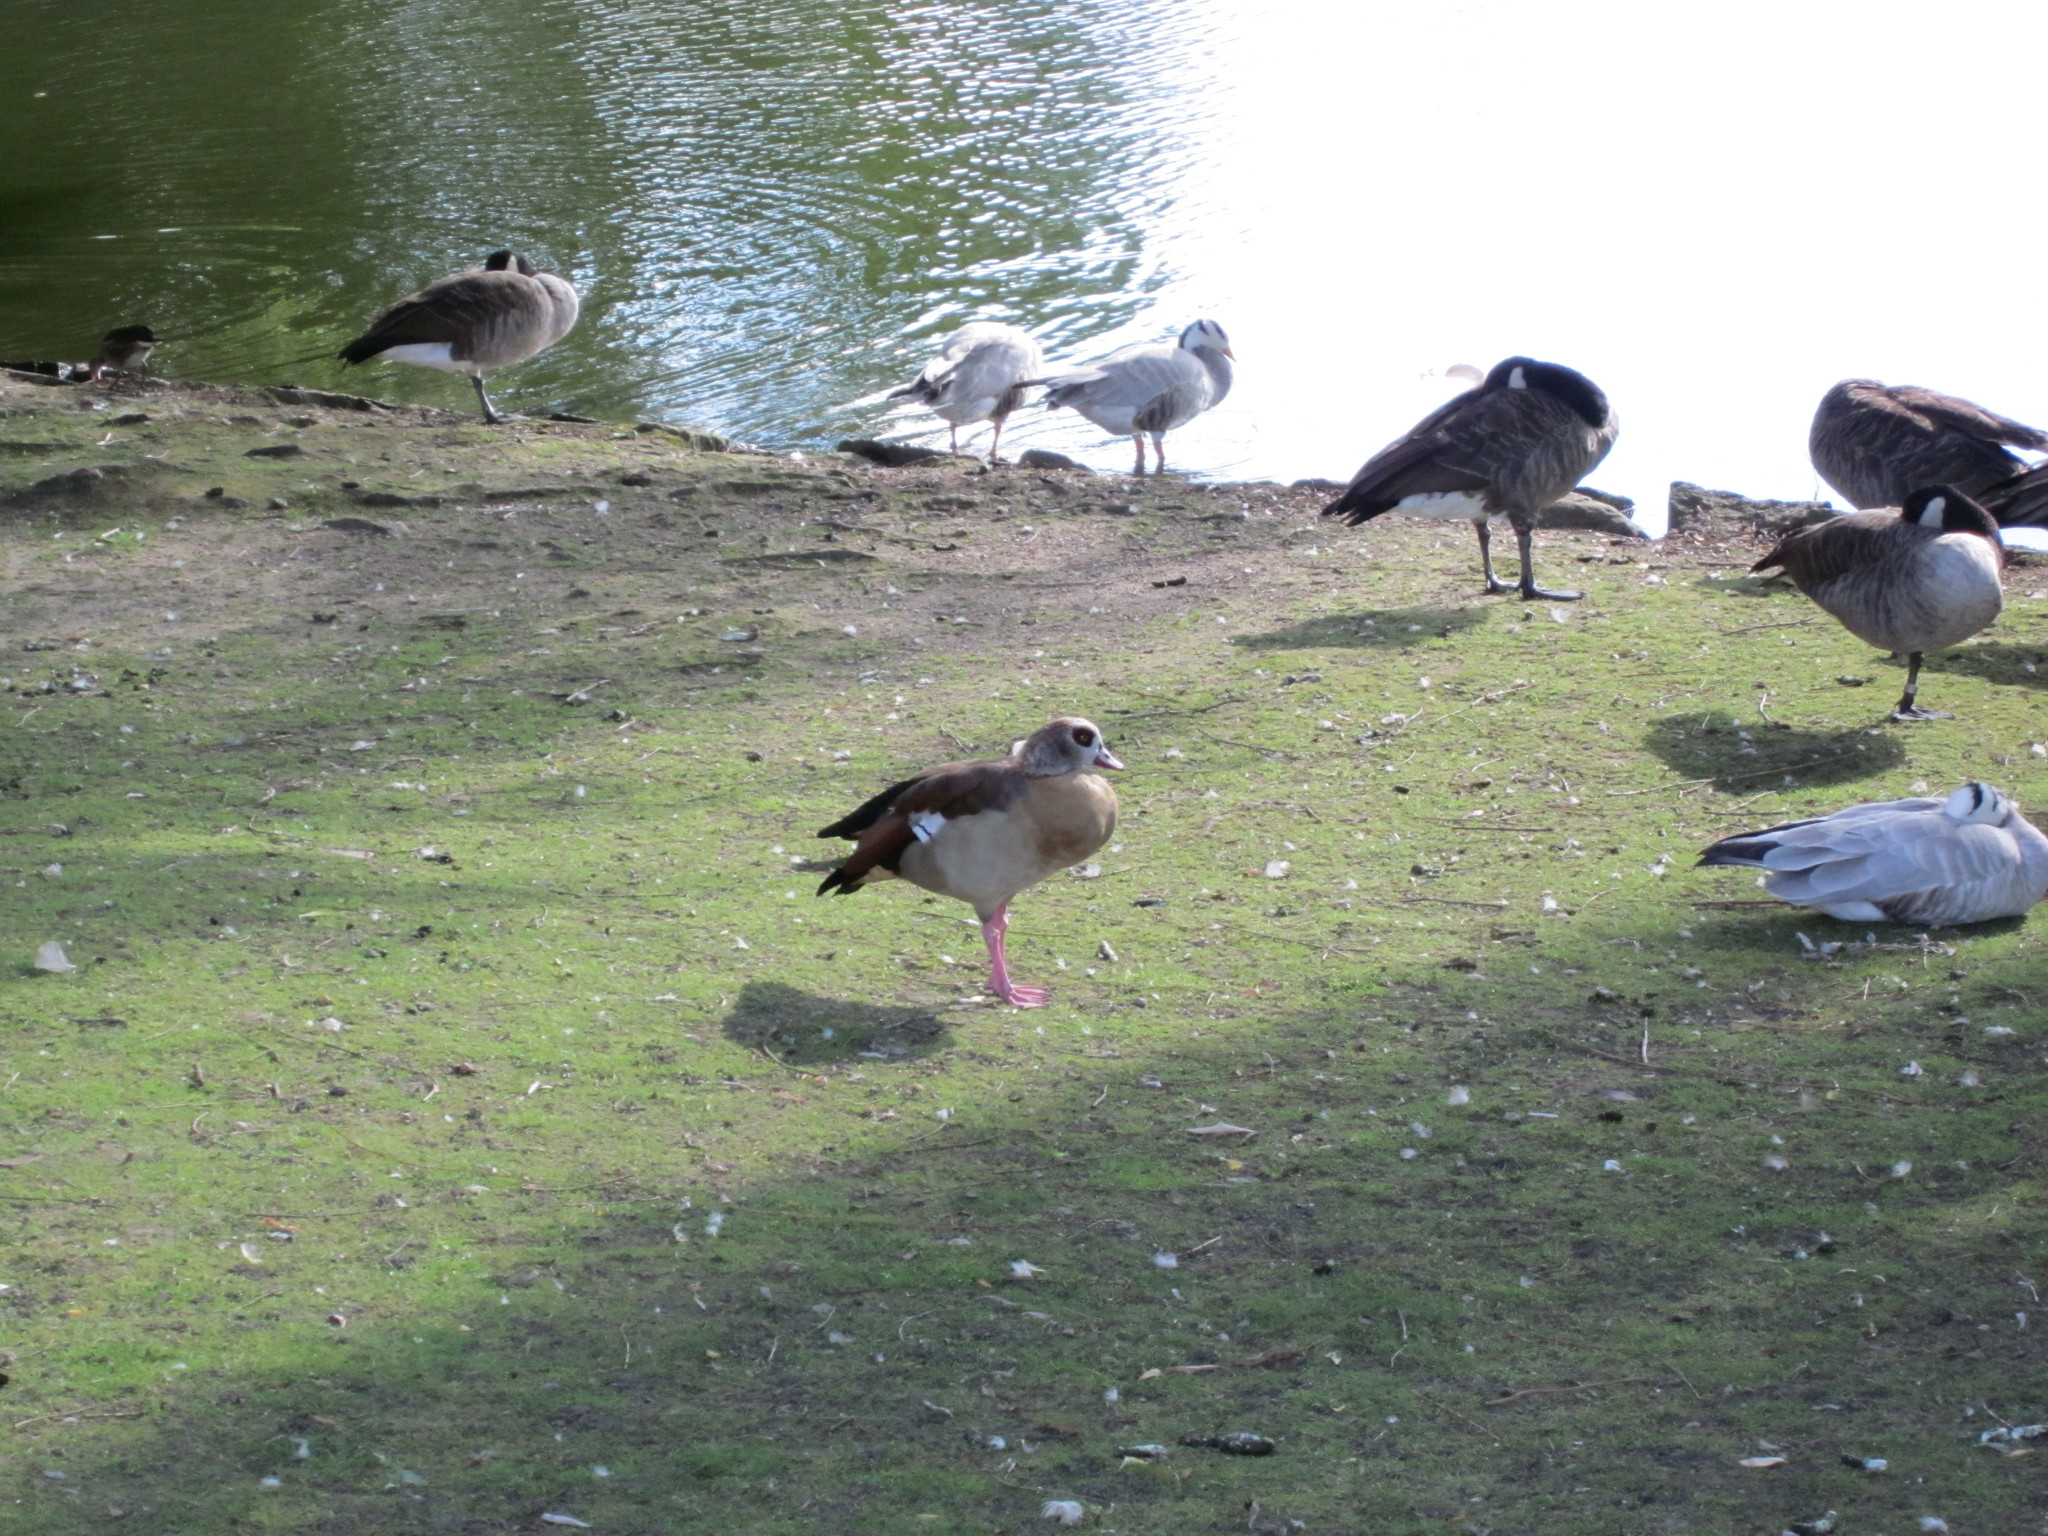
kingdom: Animalia
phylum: Chordata
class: Aves
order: Anseriformes
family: Anatidae
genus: Alopochen
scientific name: Alopochen aegyptiaca
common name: Egyptian goose
